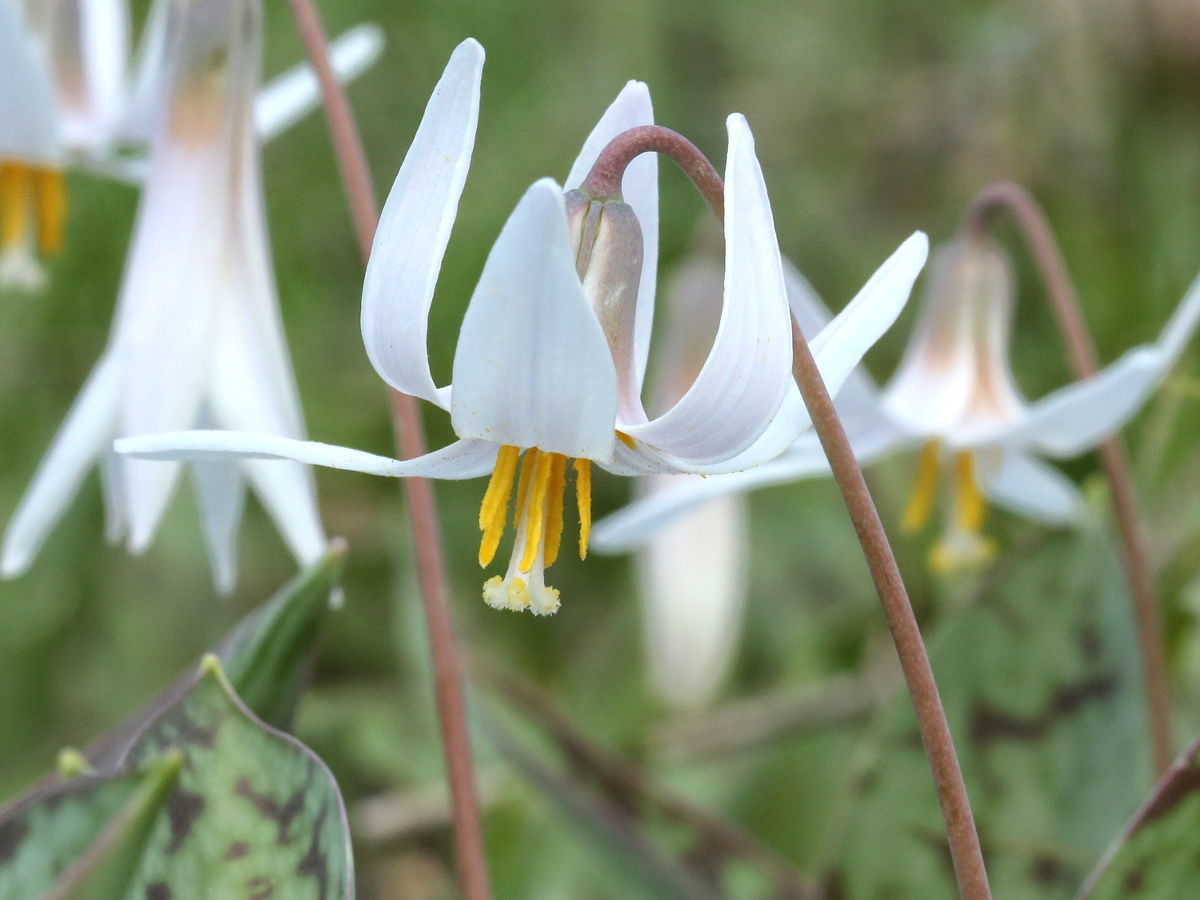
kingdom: Plantae
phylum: Tracheophyta
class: Liliopsida
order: Liliales
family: Liliaceae
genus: Erythronium
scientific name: Erythronium albidum
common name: White trout-lily
